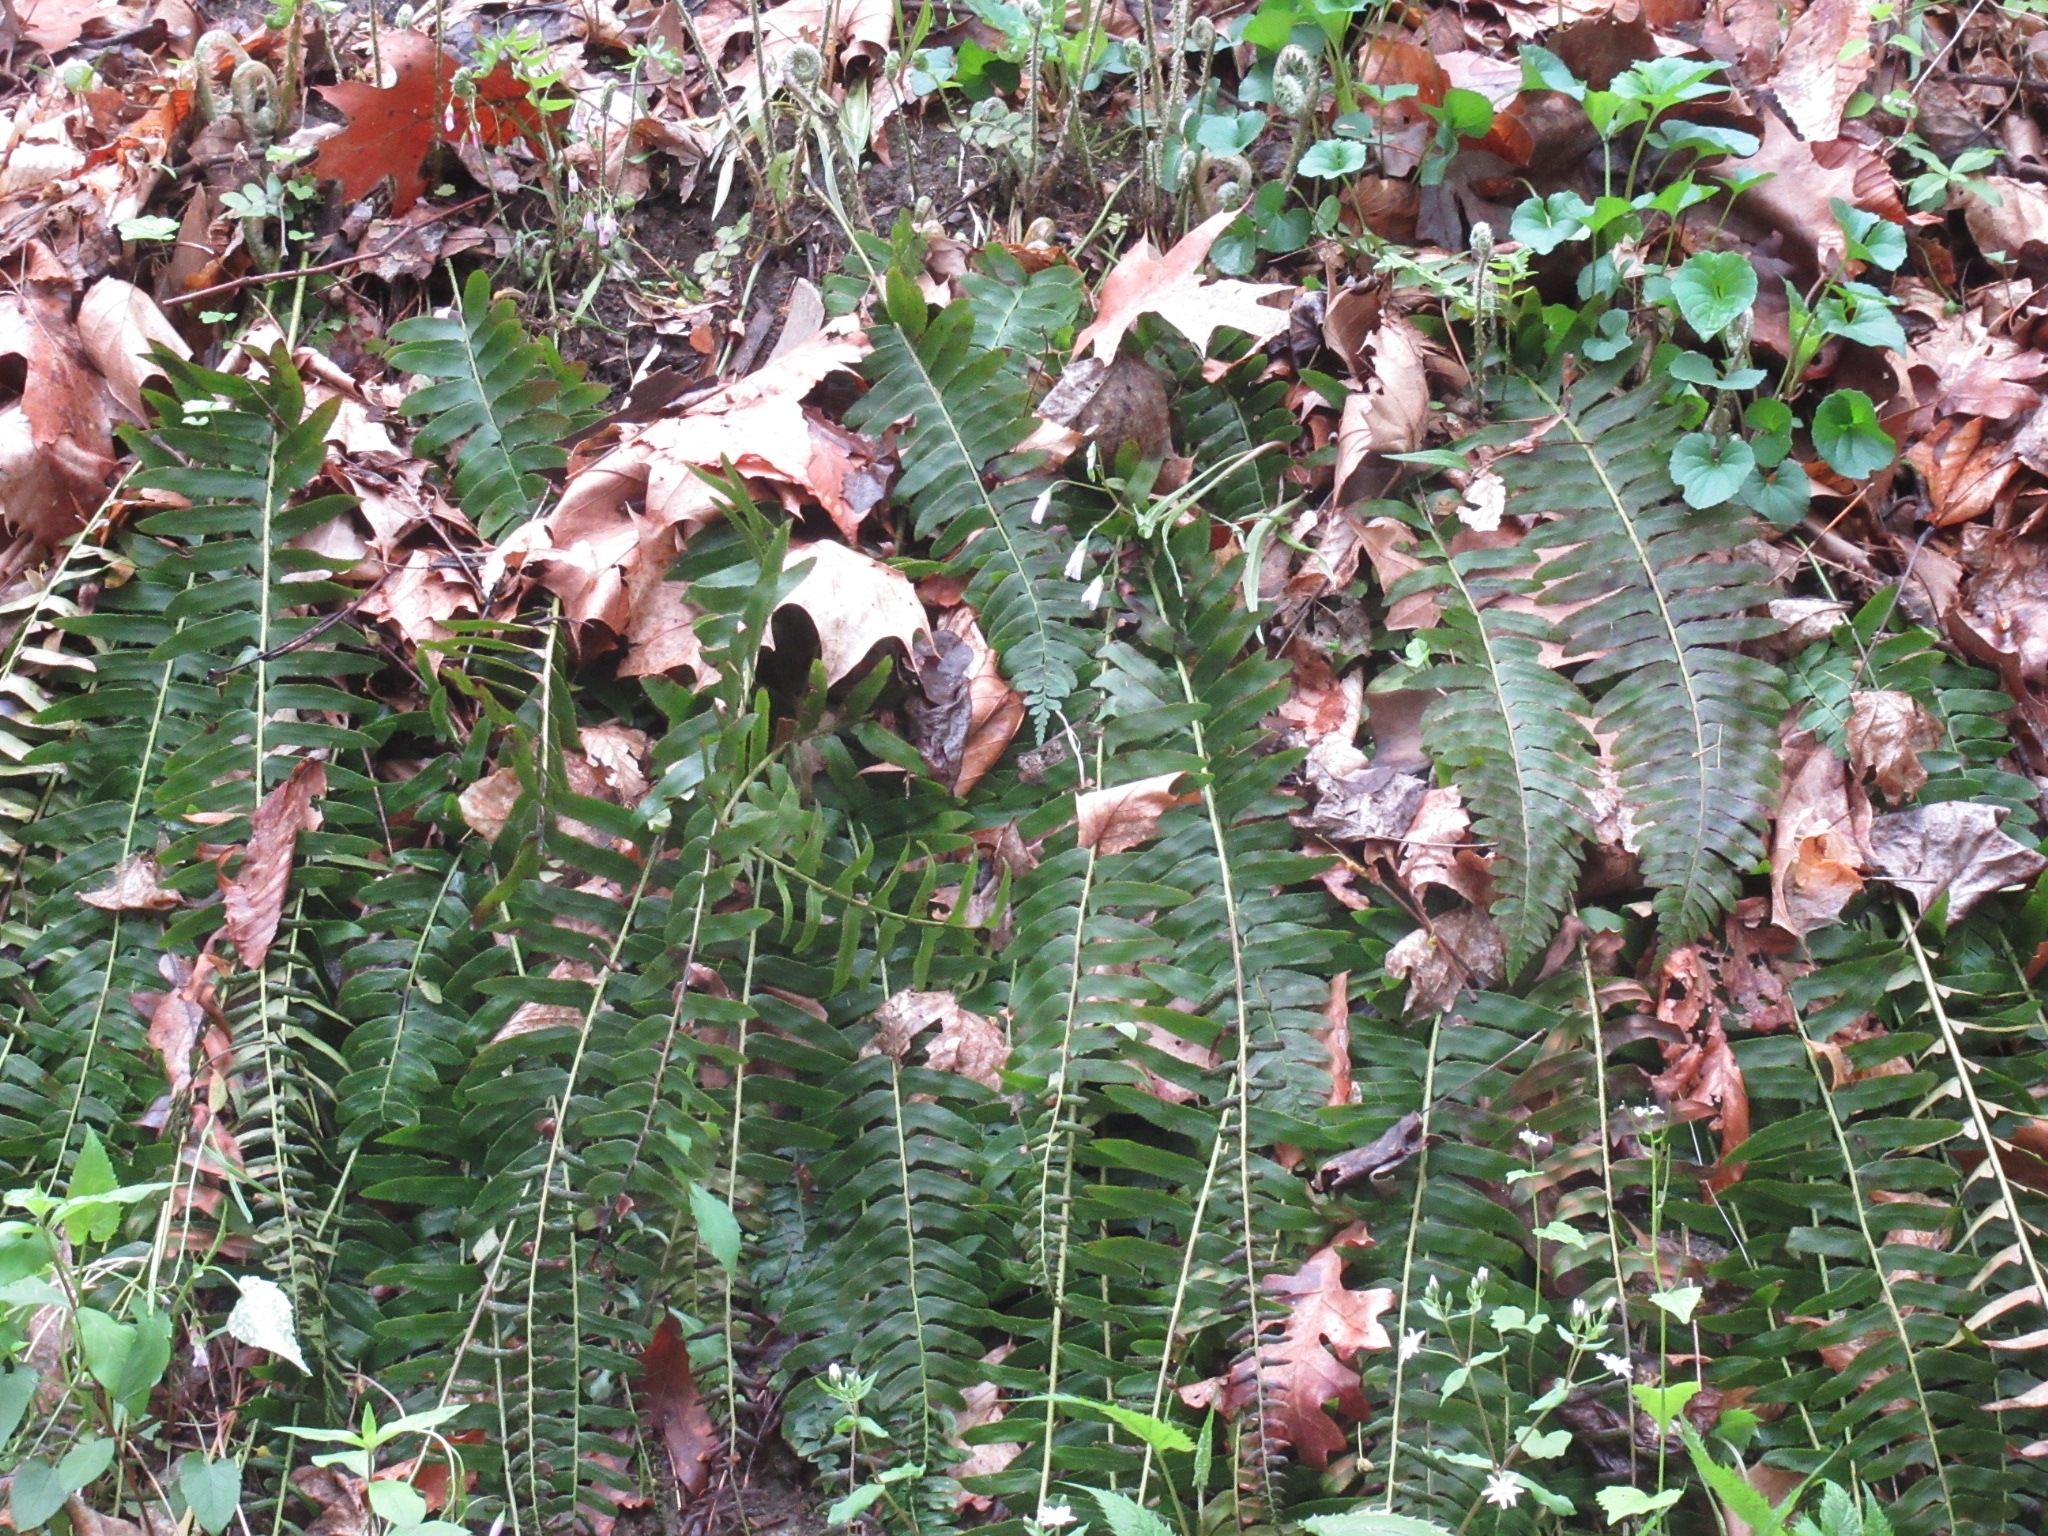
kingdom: Plantae
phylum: Tracheophyta
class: Polypodiopsida
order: Polypodiales
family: Dryopteridaceae
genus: Polystichum
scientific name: Polystichum acrostichoides
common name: Christmas fern
